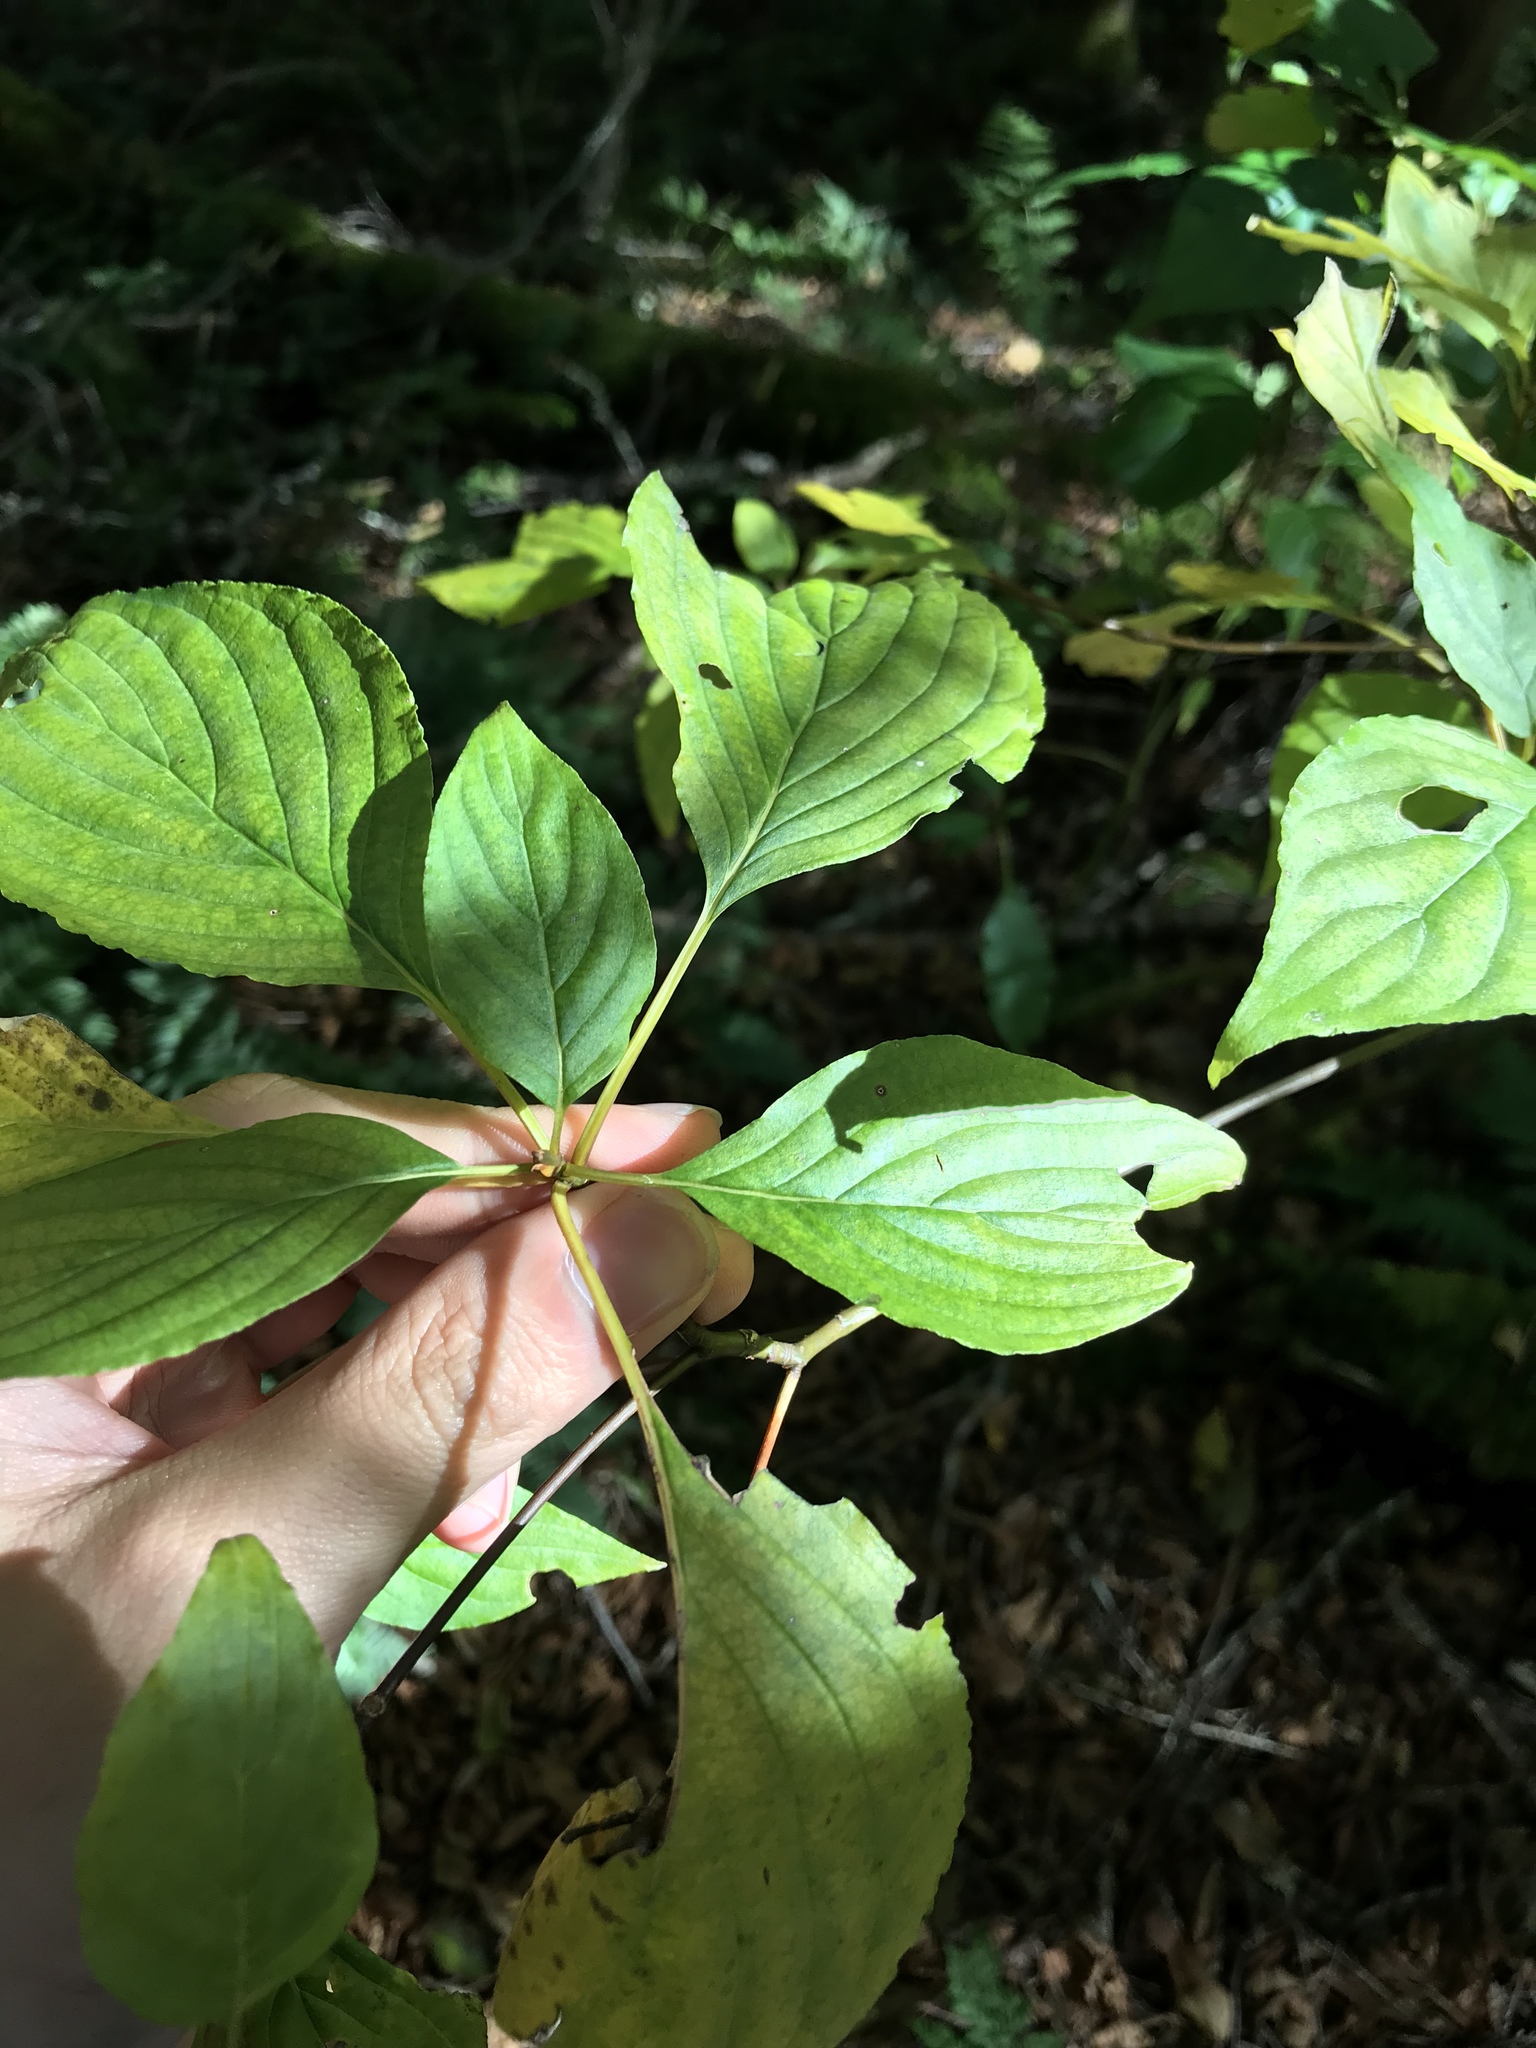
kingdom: Plantae
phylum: Tracheophyta
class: Magnoliopsida
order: Cornales
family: Cornaceae
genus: Cornus
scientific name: Cornus florida
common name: Flowering dogwood
